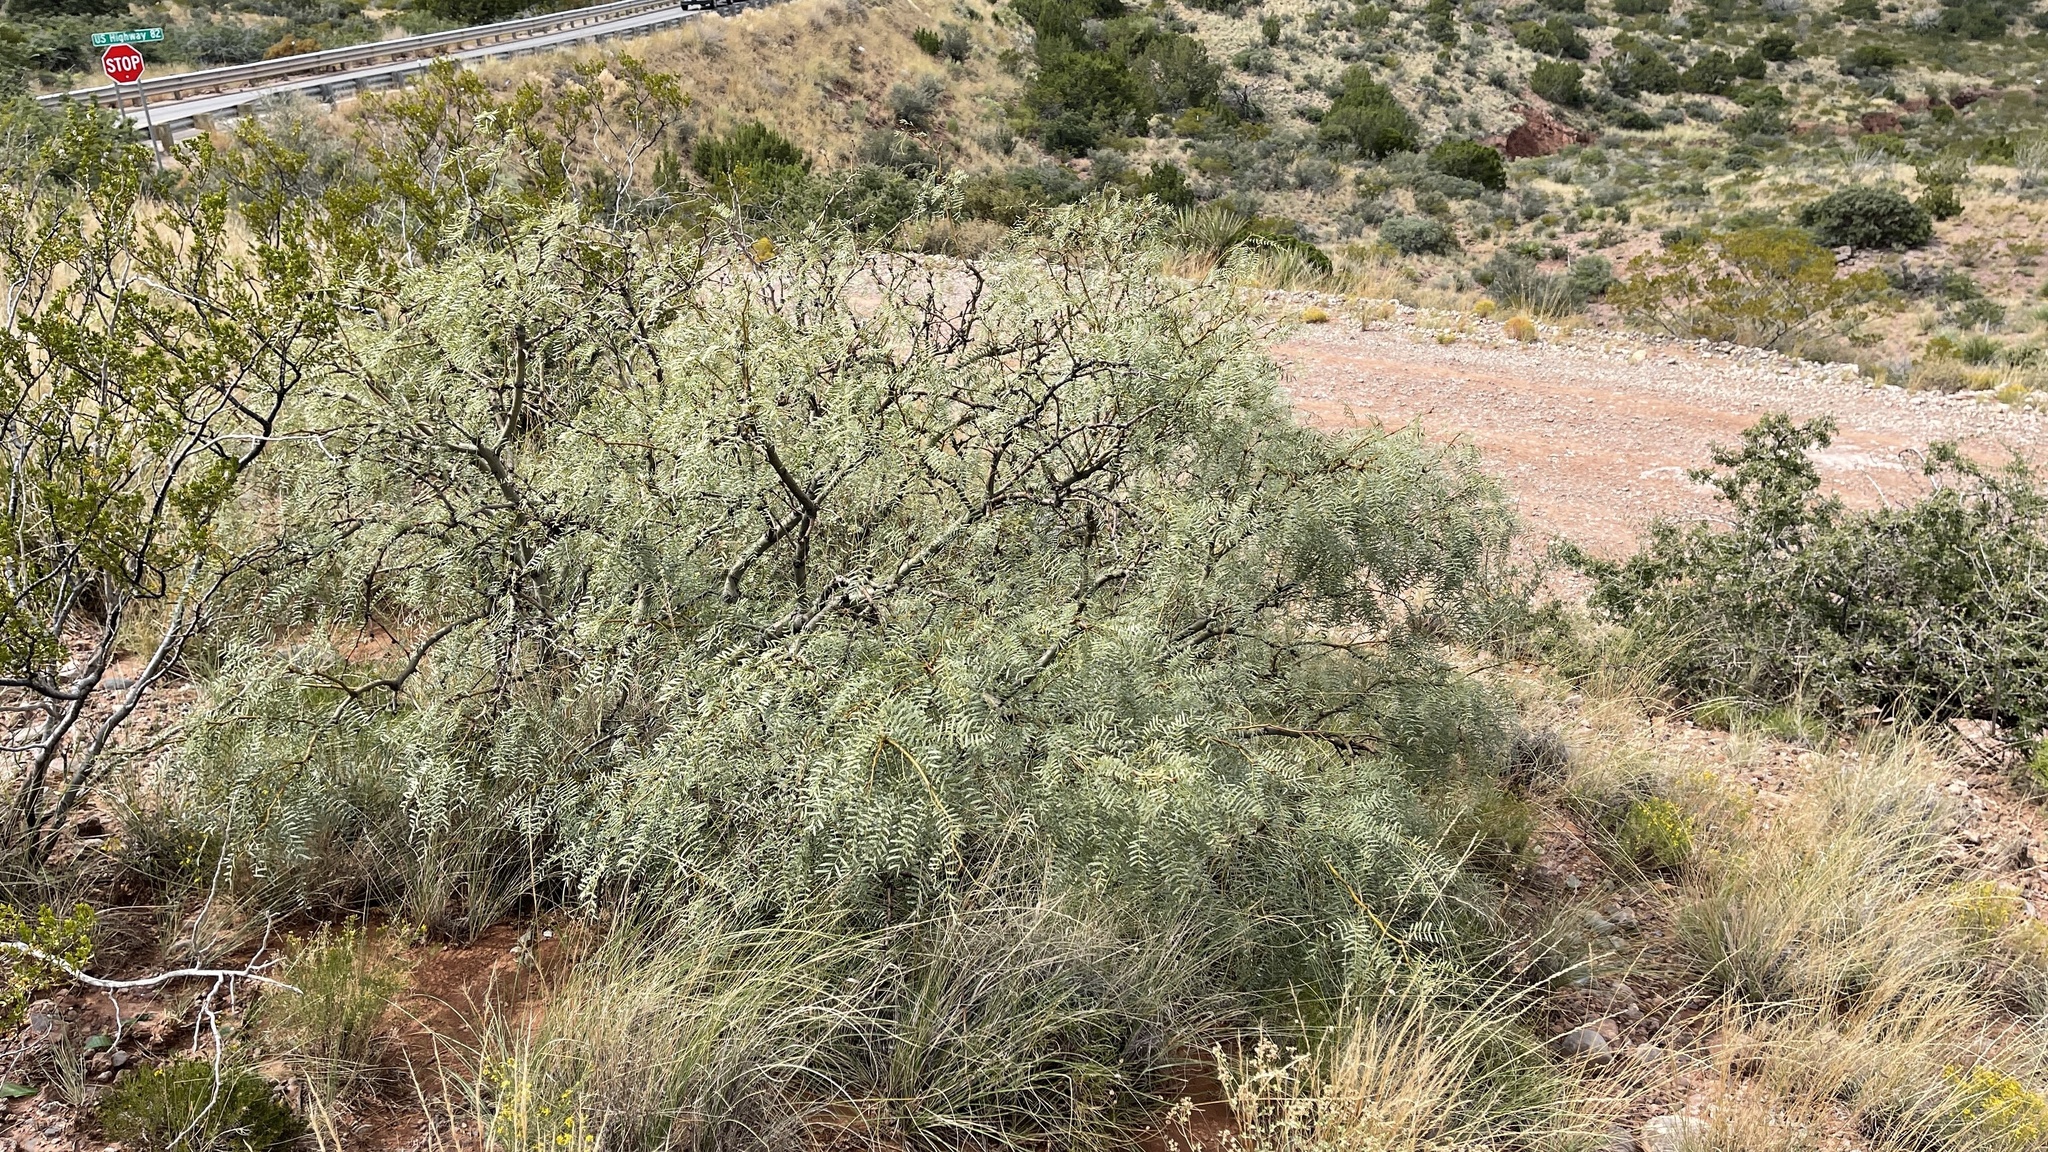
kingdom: Plantae
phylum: Tracheophyta
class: Magnoliopsida
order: Fabales
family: Fabaceae
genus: Prosopis
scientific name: Prosopis glandulosa
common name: Honey mesquite
